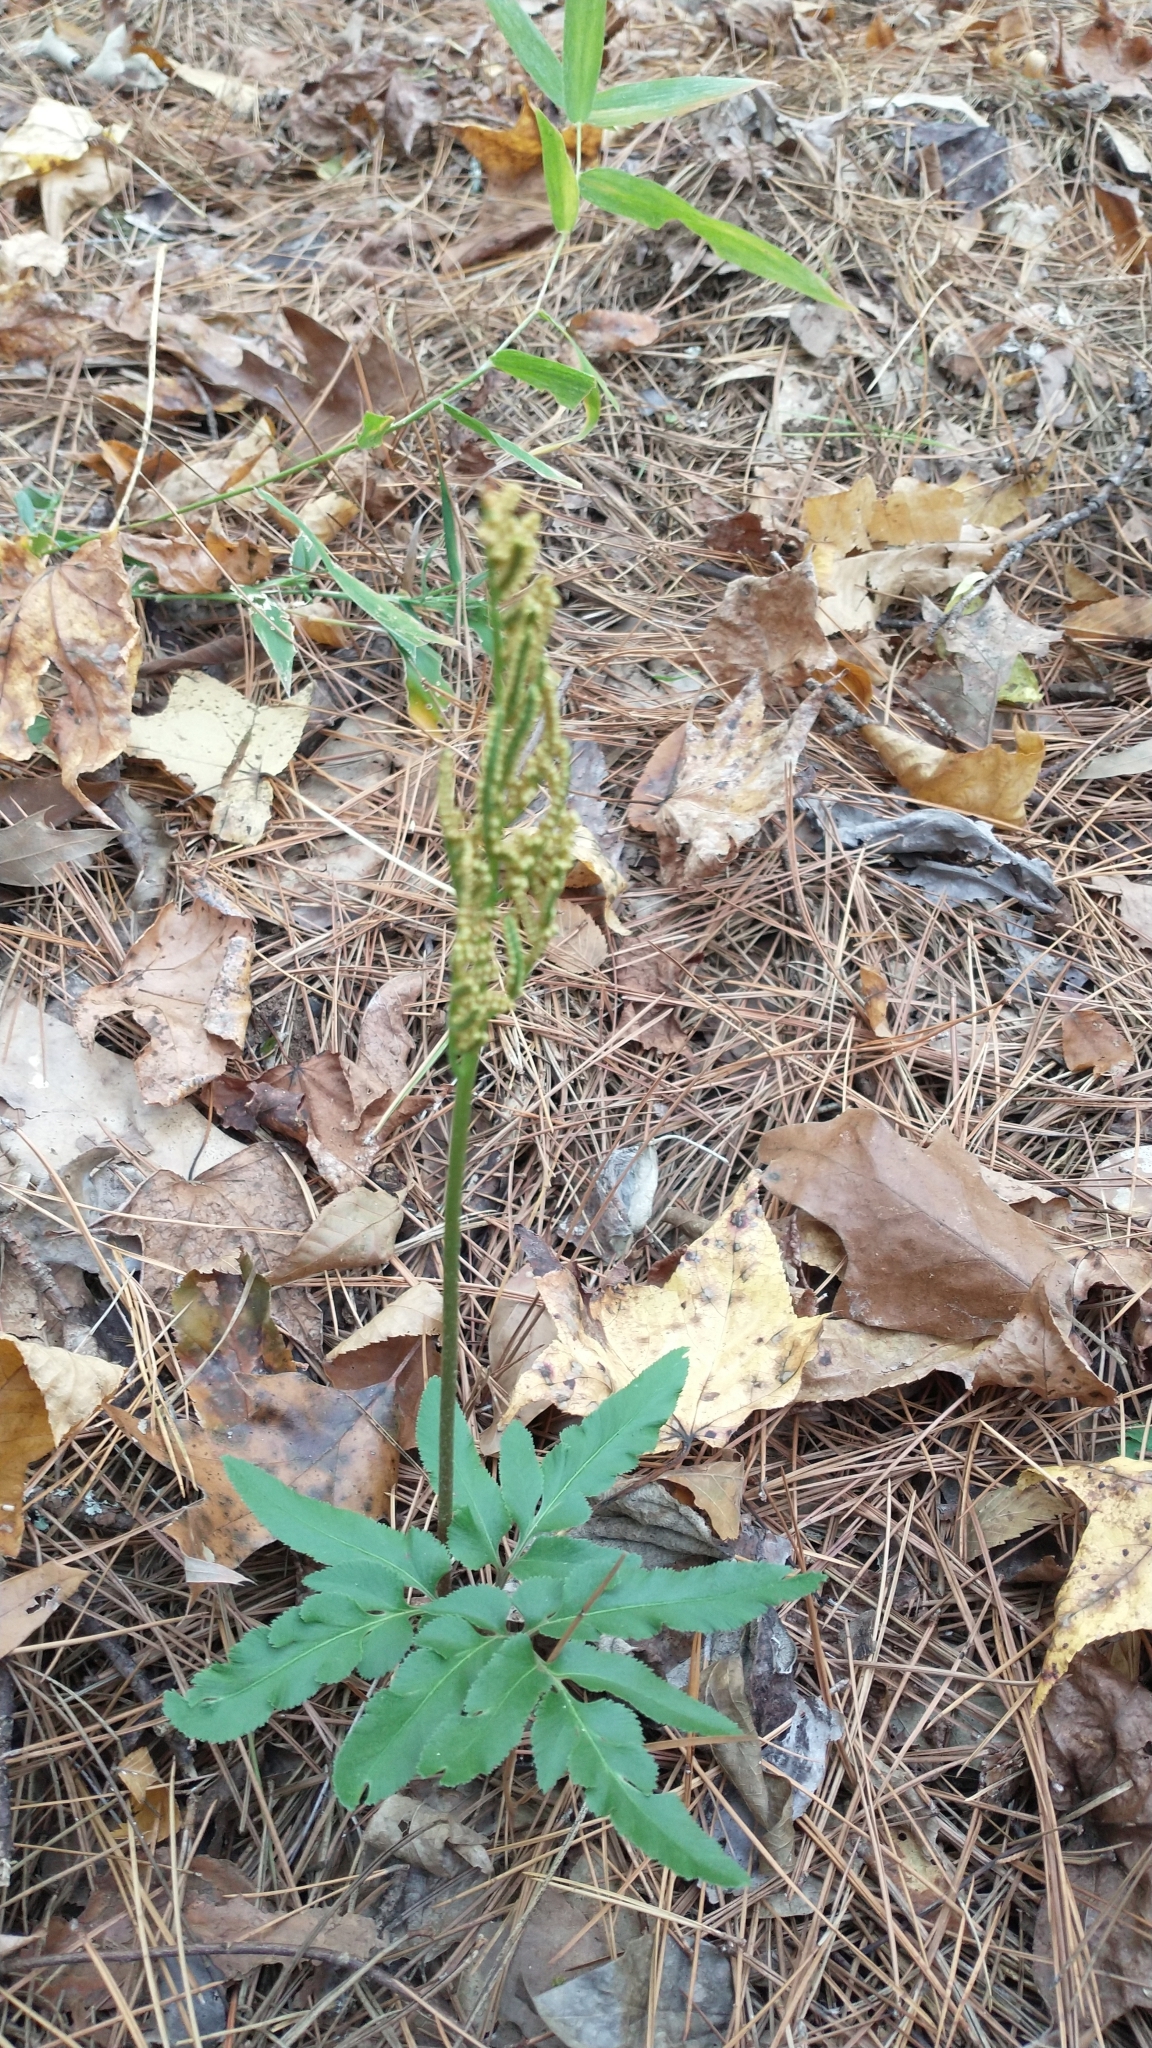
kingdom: Plantae
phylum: Tracheophyta
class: Polypodiopsida
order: Ophioglossales
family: Ophioglossaceae
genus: Sceptridium
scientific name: Sceptridium biternatum
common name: Sparse-lobed grapefern
